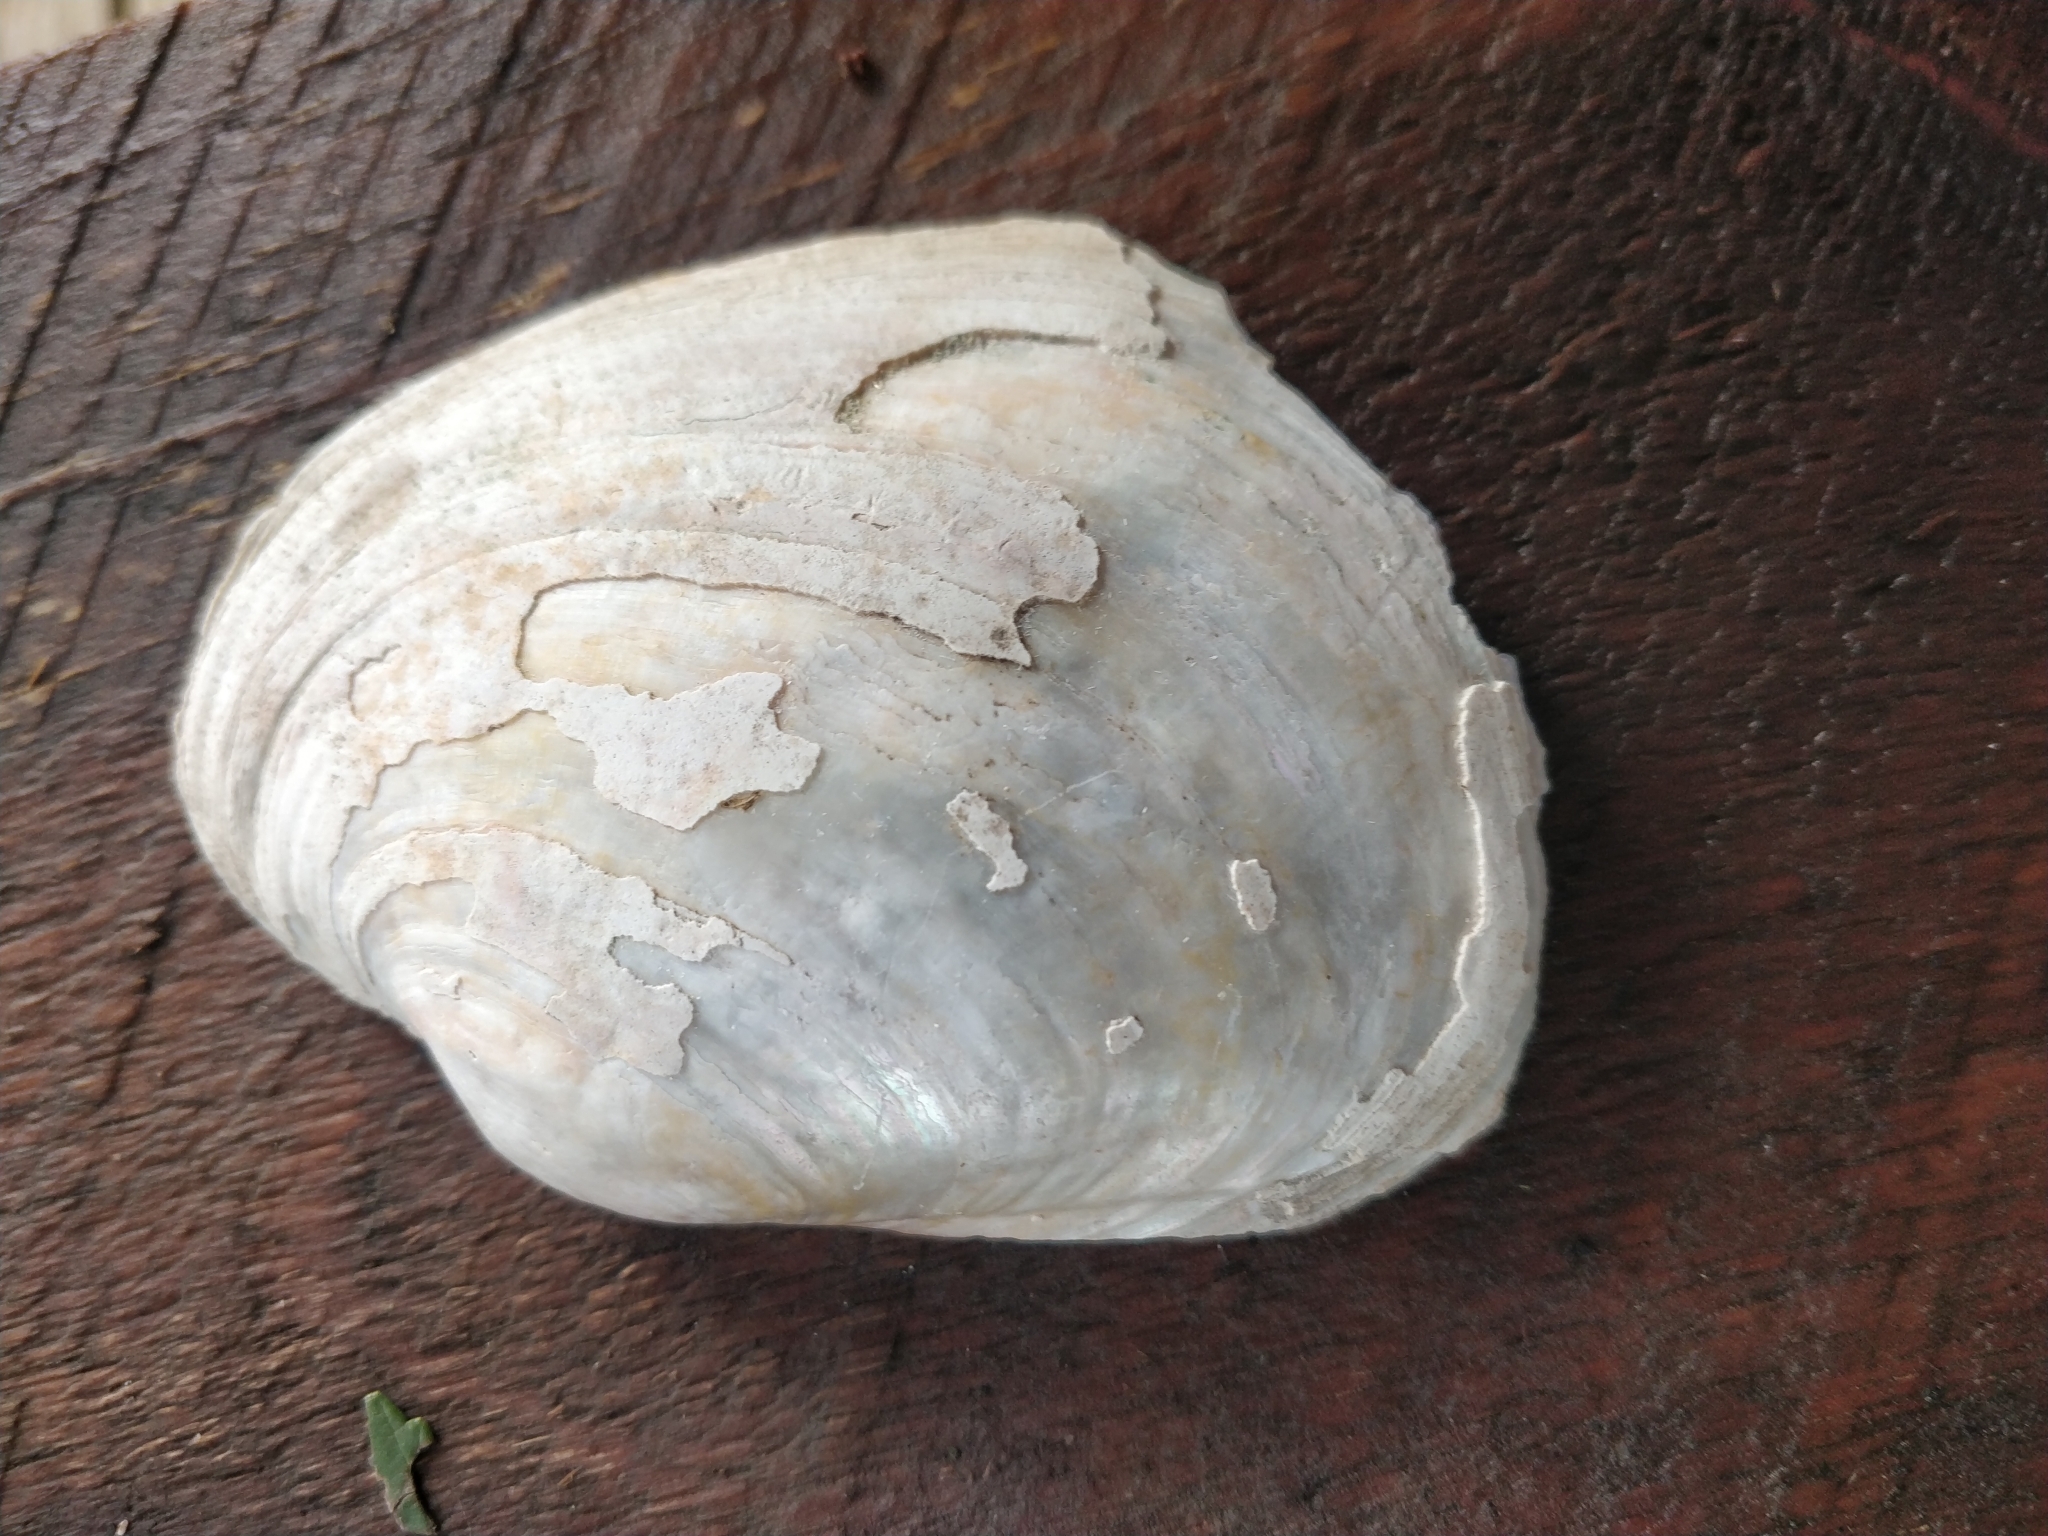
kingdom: Animalia
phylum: Mollusca
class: Bivalvia
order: Unionida
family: Unionidae
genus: Lampsilis
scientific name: Lampsilis cardium
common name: Plain pocketbook
